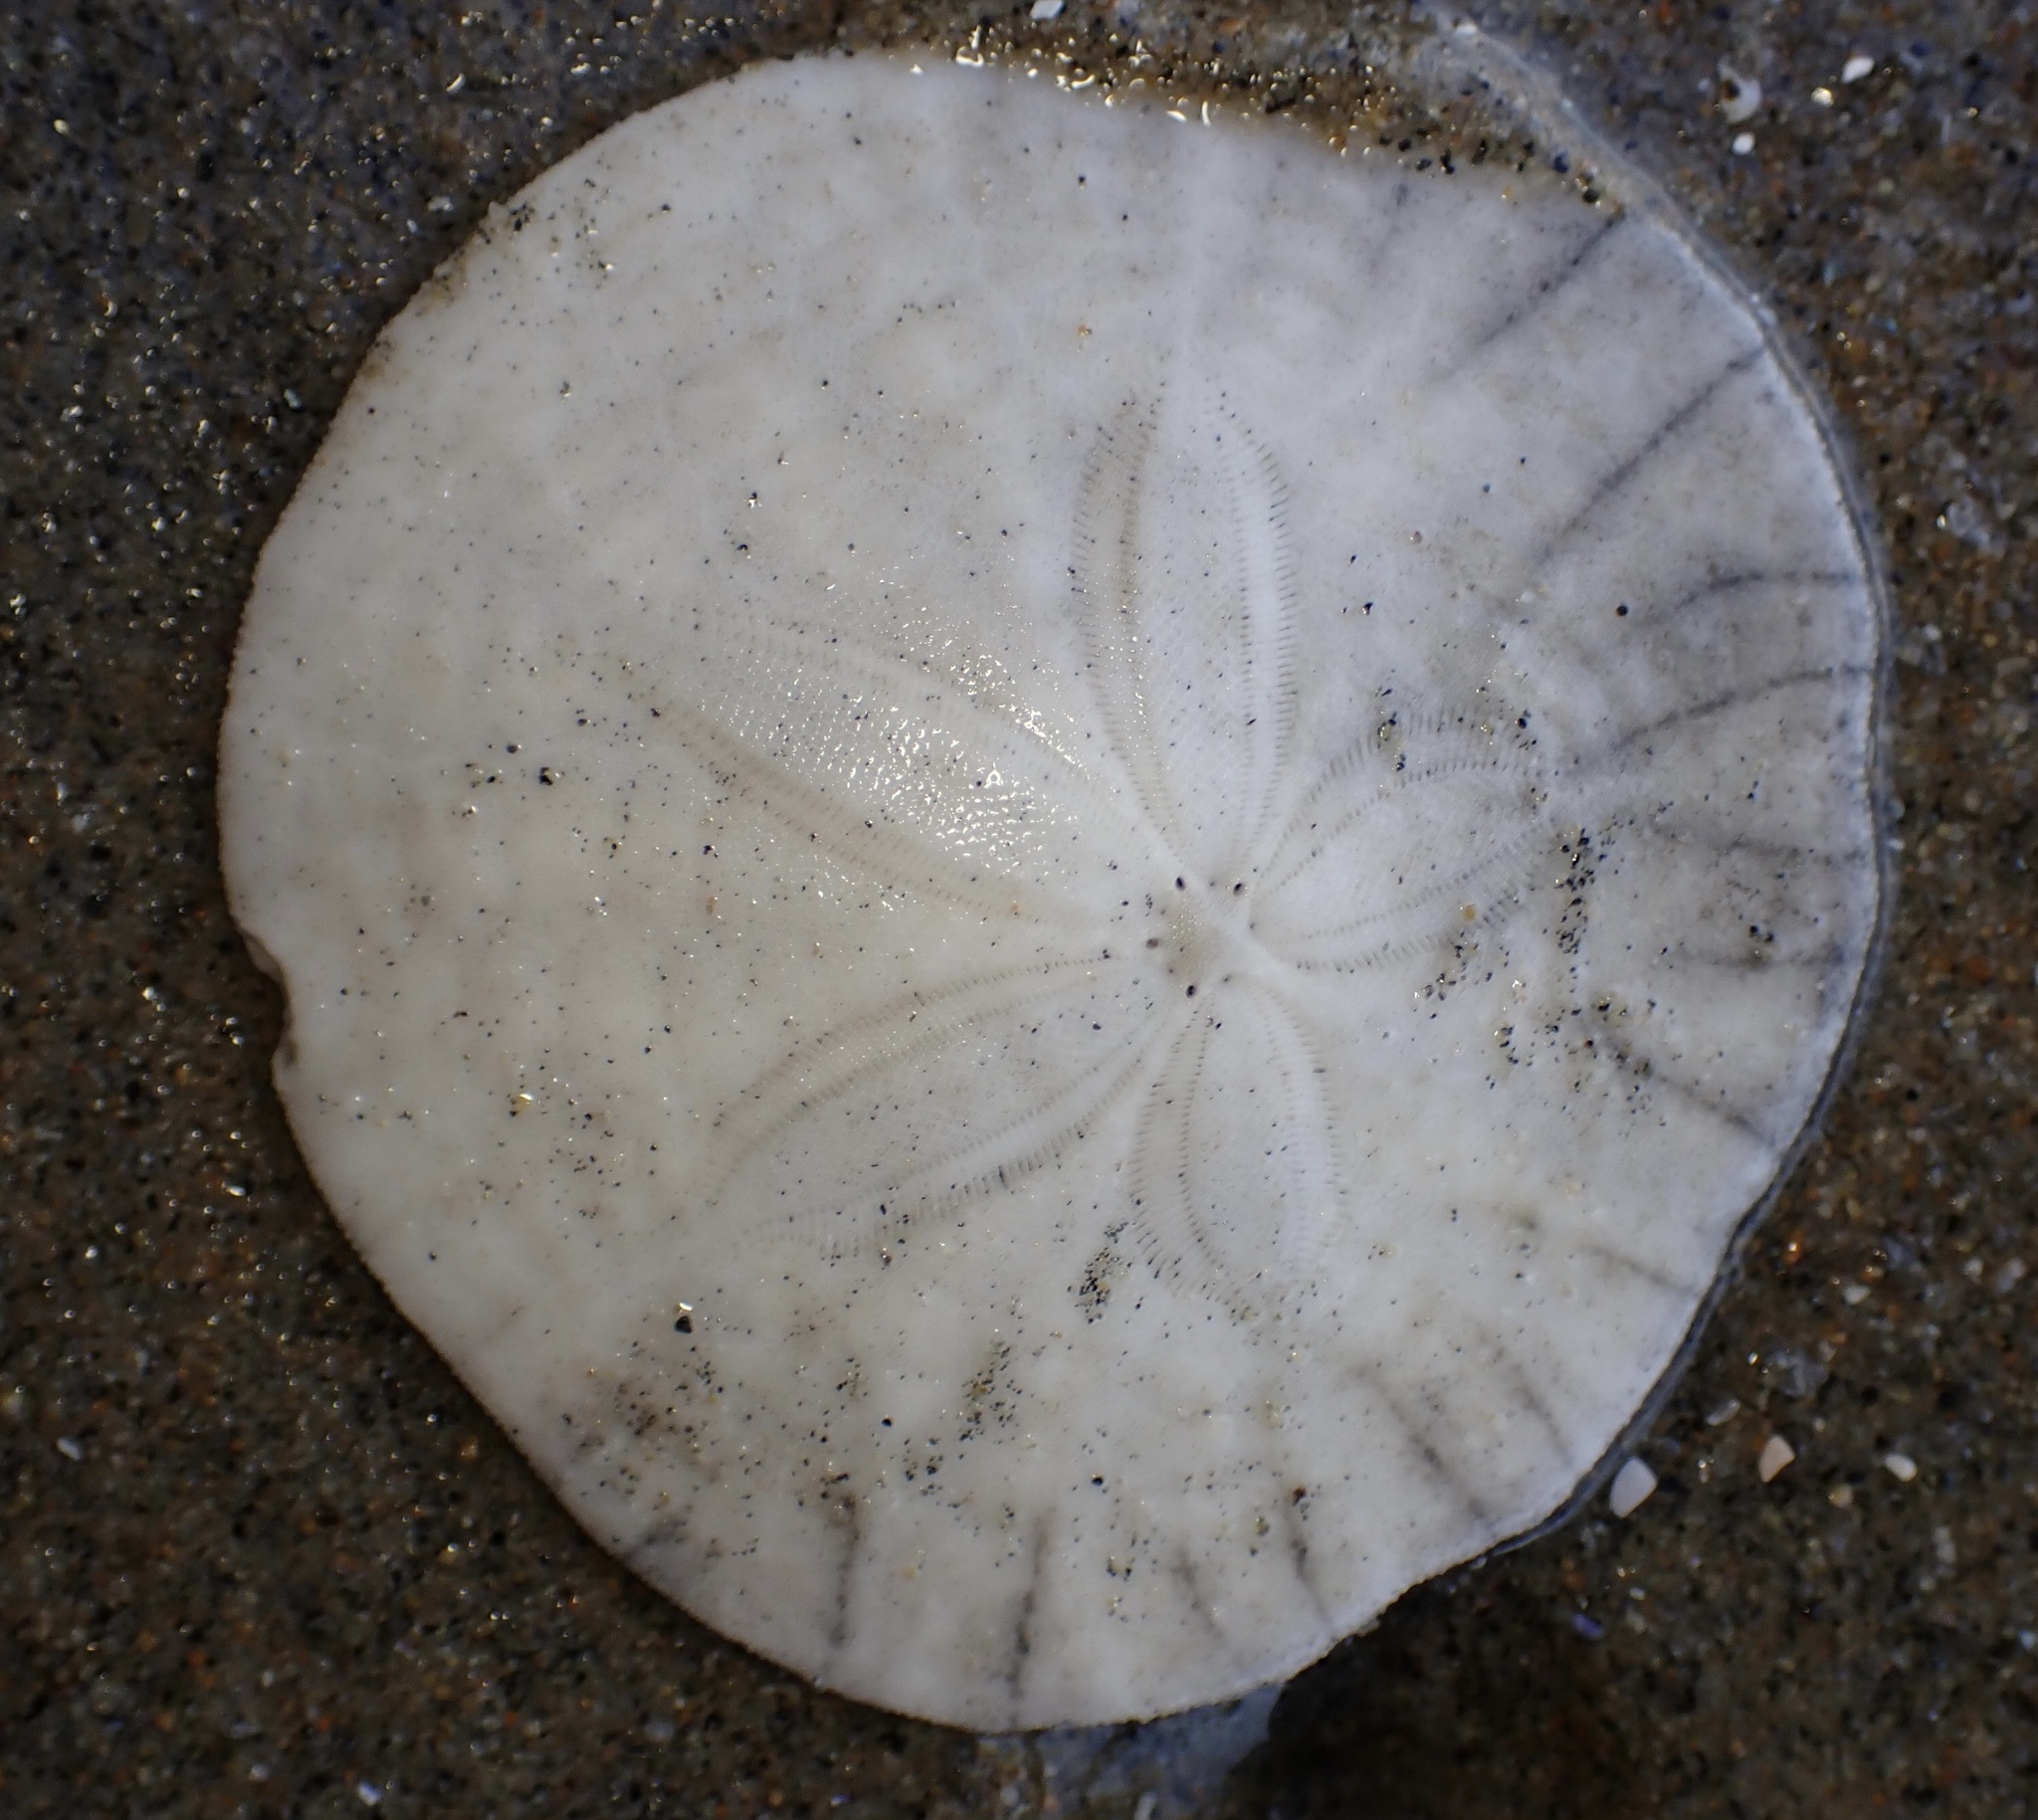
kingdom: Animalia
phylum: Echinodermata
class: Echinoidea
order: Echinolampadacea
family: Dendrasteridae
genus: Dendraster
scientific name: Dendraster excentricus
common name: Eccentric sand dollar sea urchin
